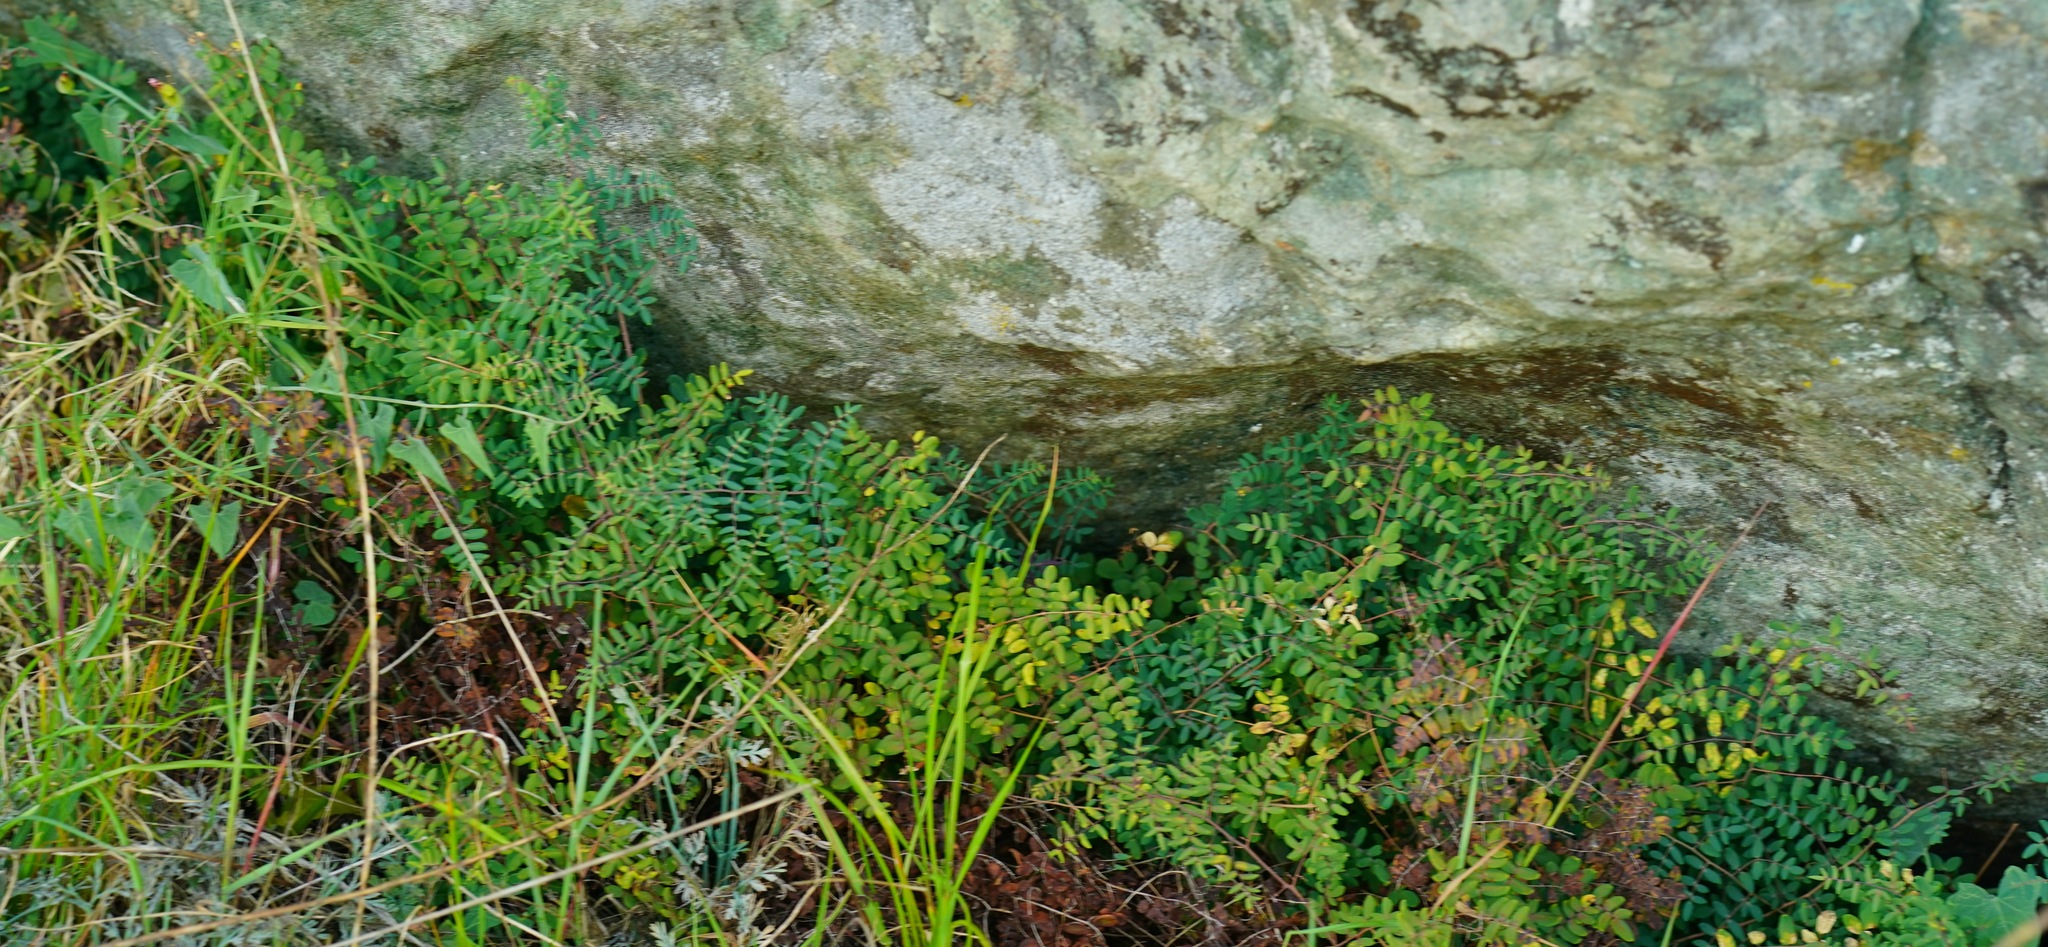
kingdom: Plantae
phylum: Tracheophyta
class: Polypodiopsida
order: Polypodiales
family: Pteridaceae
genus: Pellaea
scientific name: Pellaea andromedifolia
